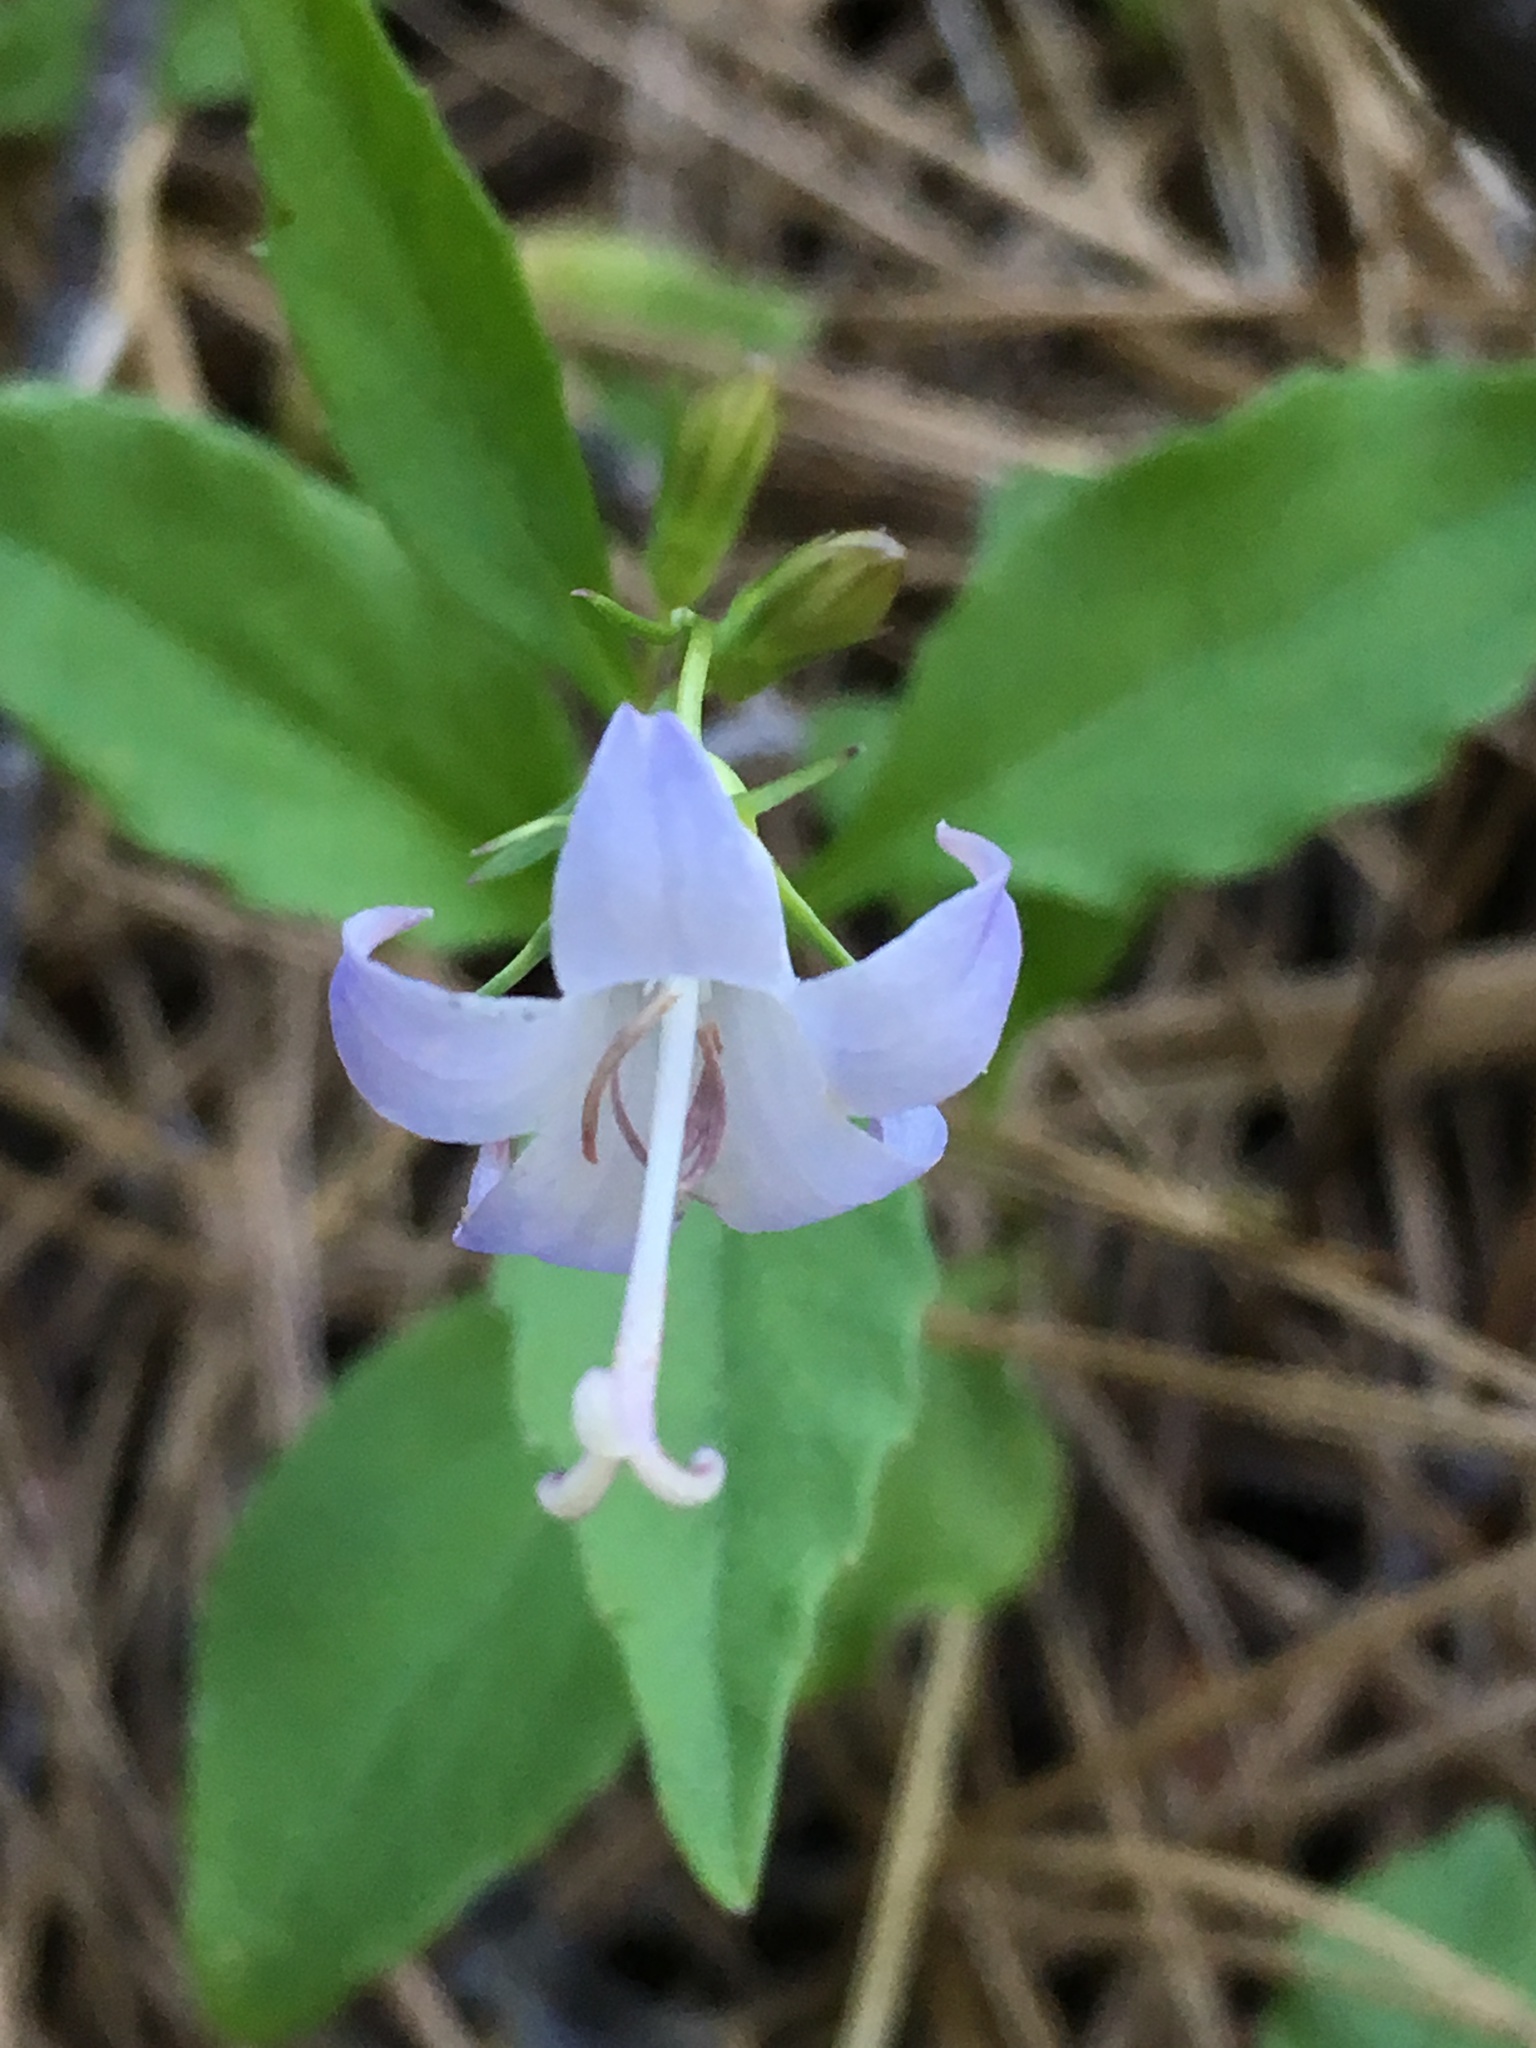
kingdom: Plantae
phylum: Tracheophyta
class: Magnoliopsida
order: Asterales
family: Campanulaceae
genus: Campanula
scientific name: Campanula scouleri
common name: Scouler's harebell
